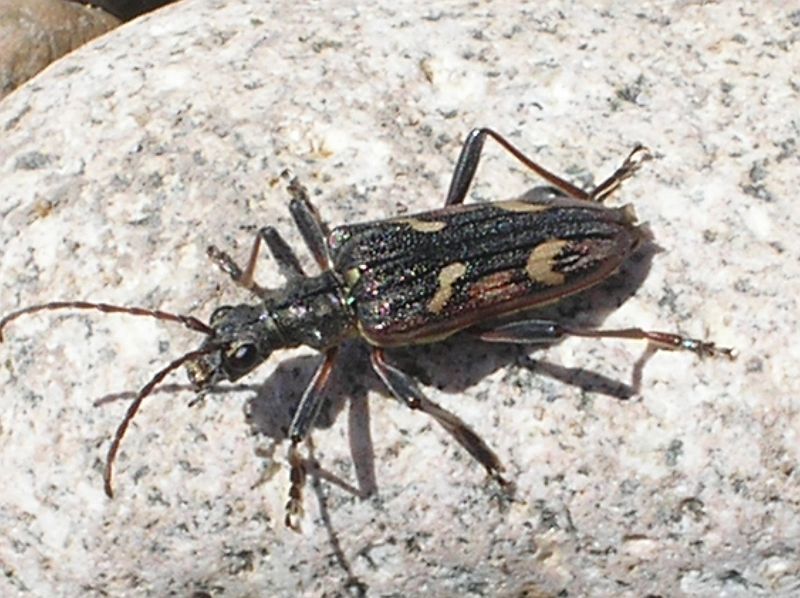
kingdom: Animalia
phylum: Arthropoda
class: Insecta
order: Coleoptera
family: Cerambycidae
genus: Rhagium
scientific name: Rhagium bifasciatum
